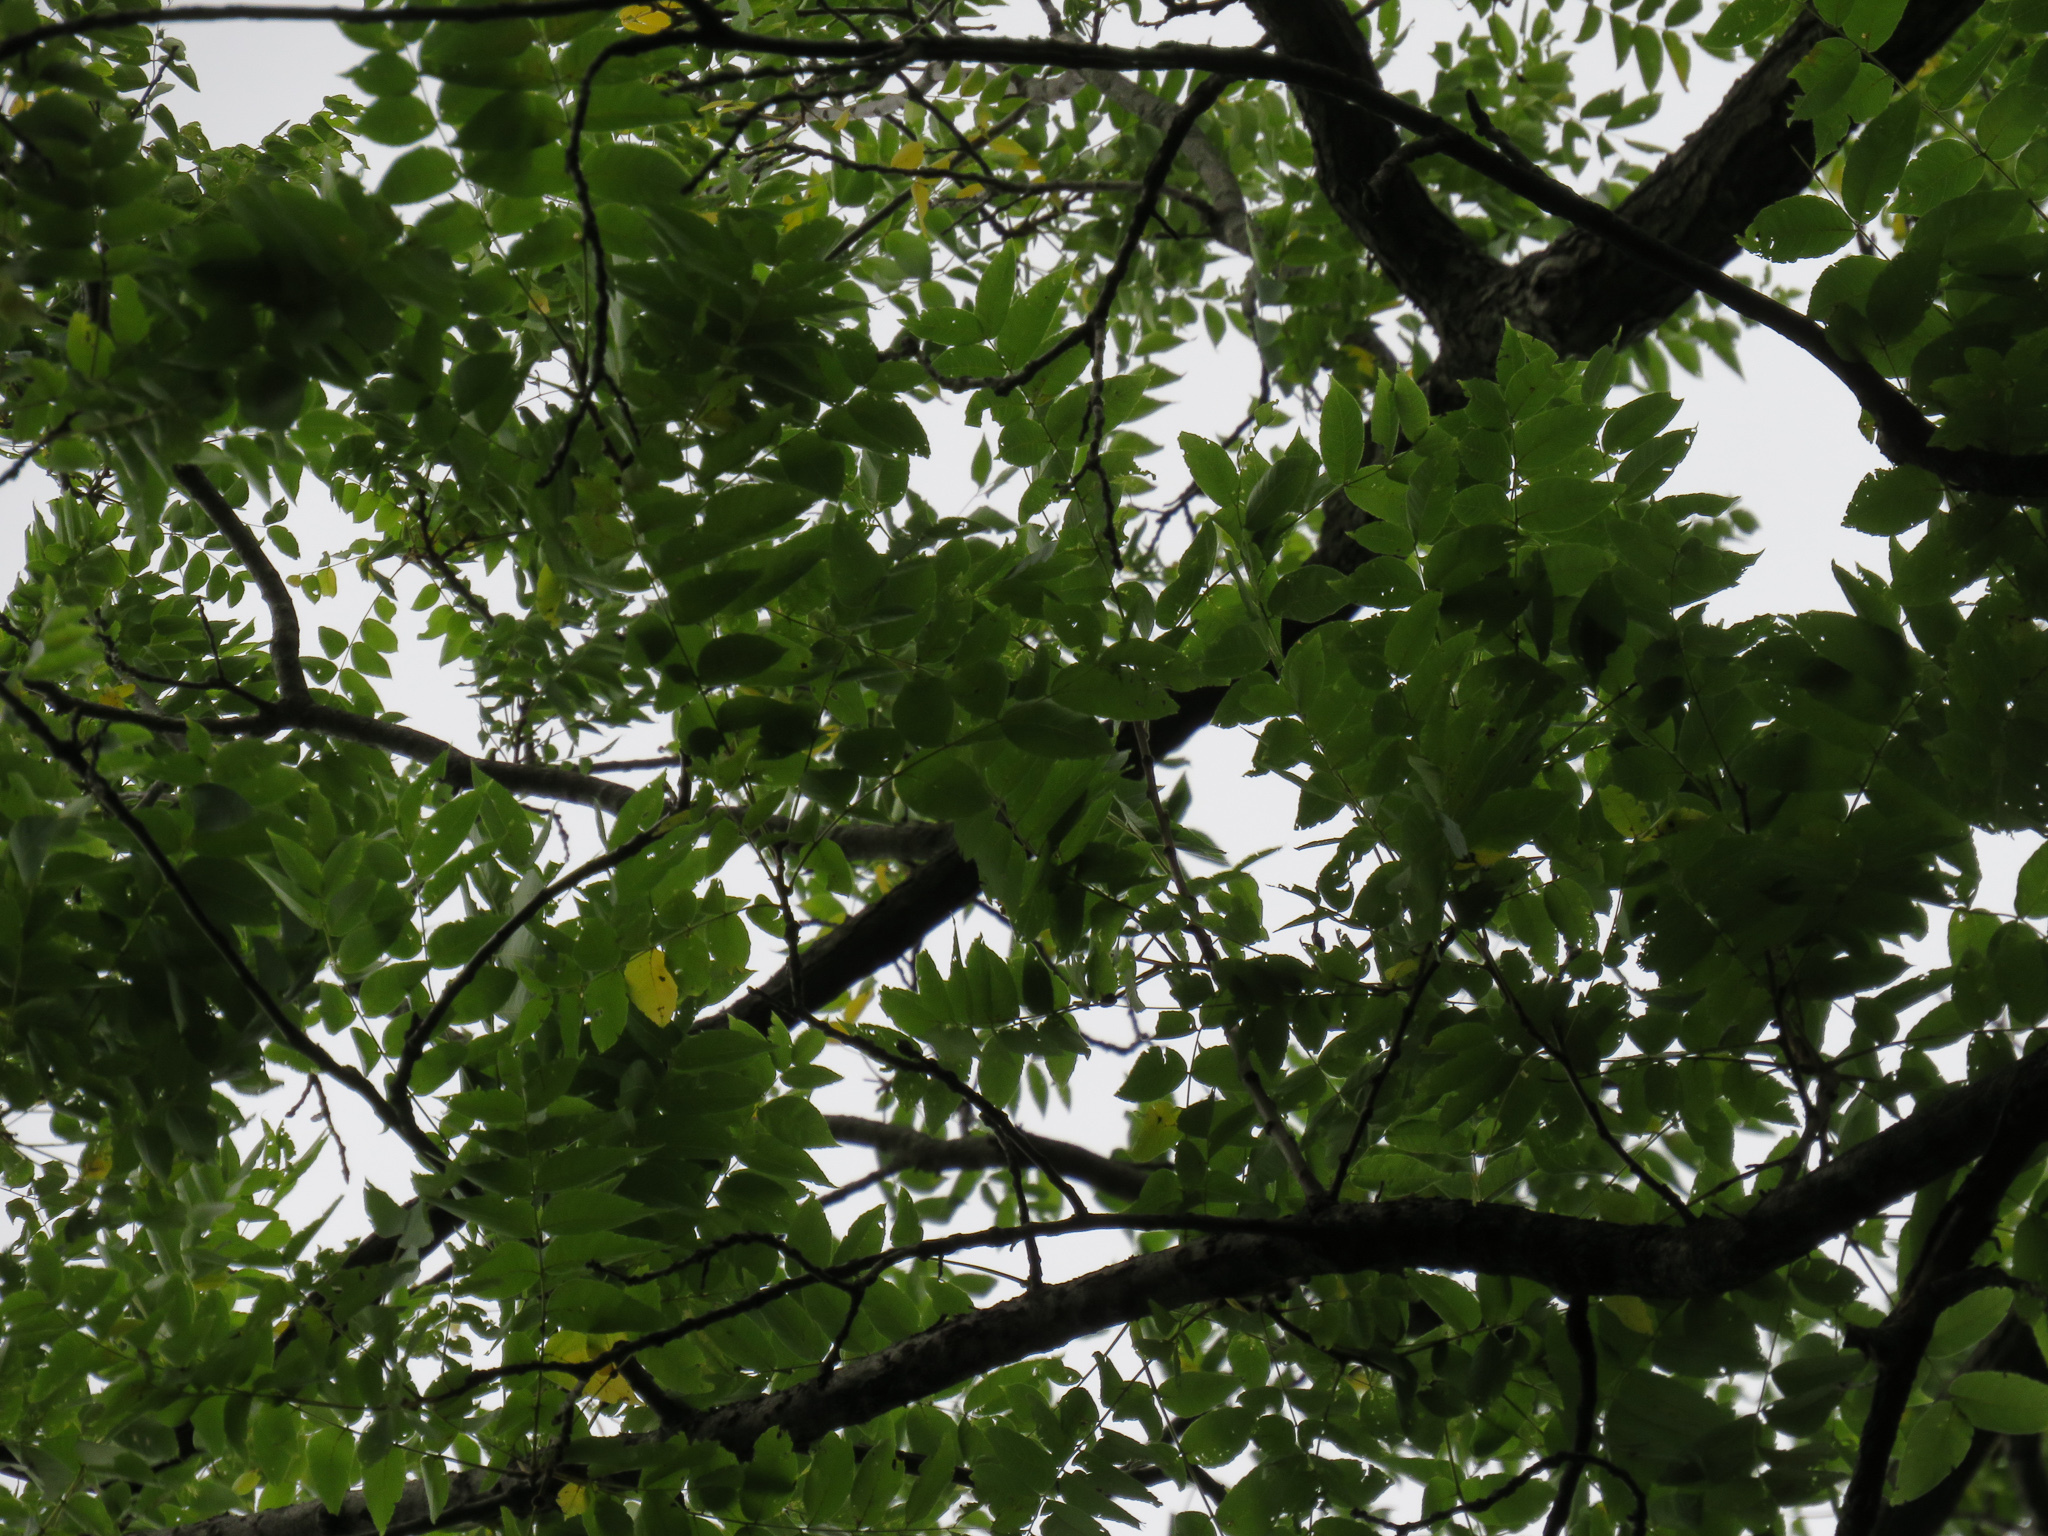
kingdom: Plantae
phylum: Tracheophyta
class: Magnoliopsida
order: Fagales
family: Juglandaceae
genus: Juglans
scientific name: Juglans nigra
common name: Black walnut
